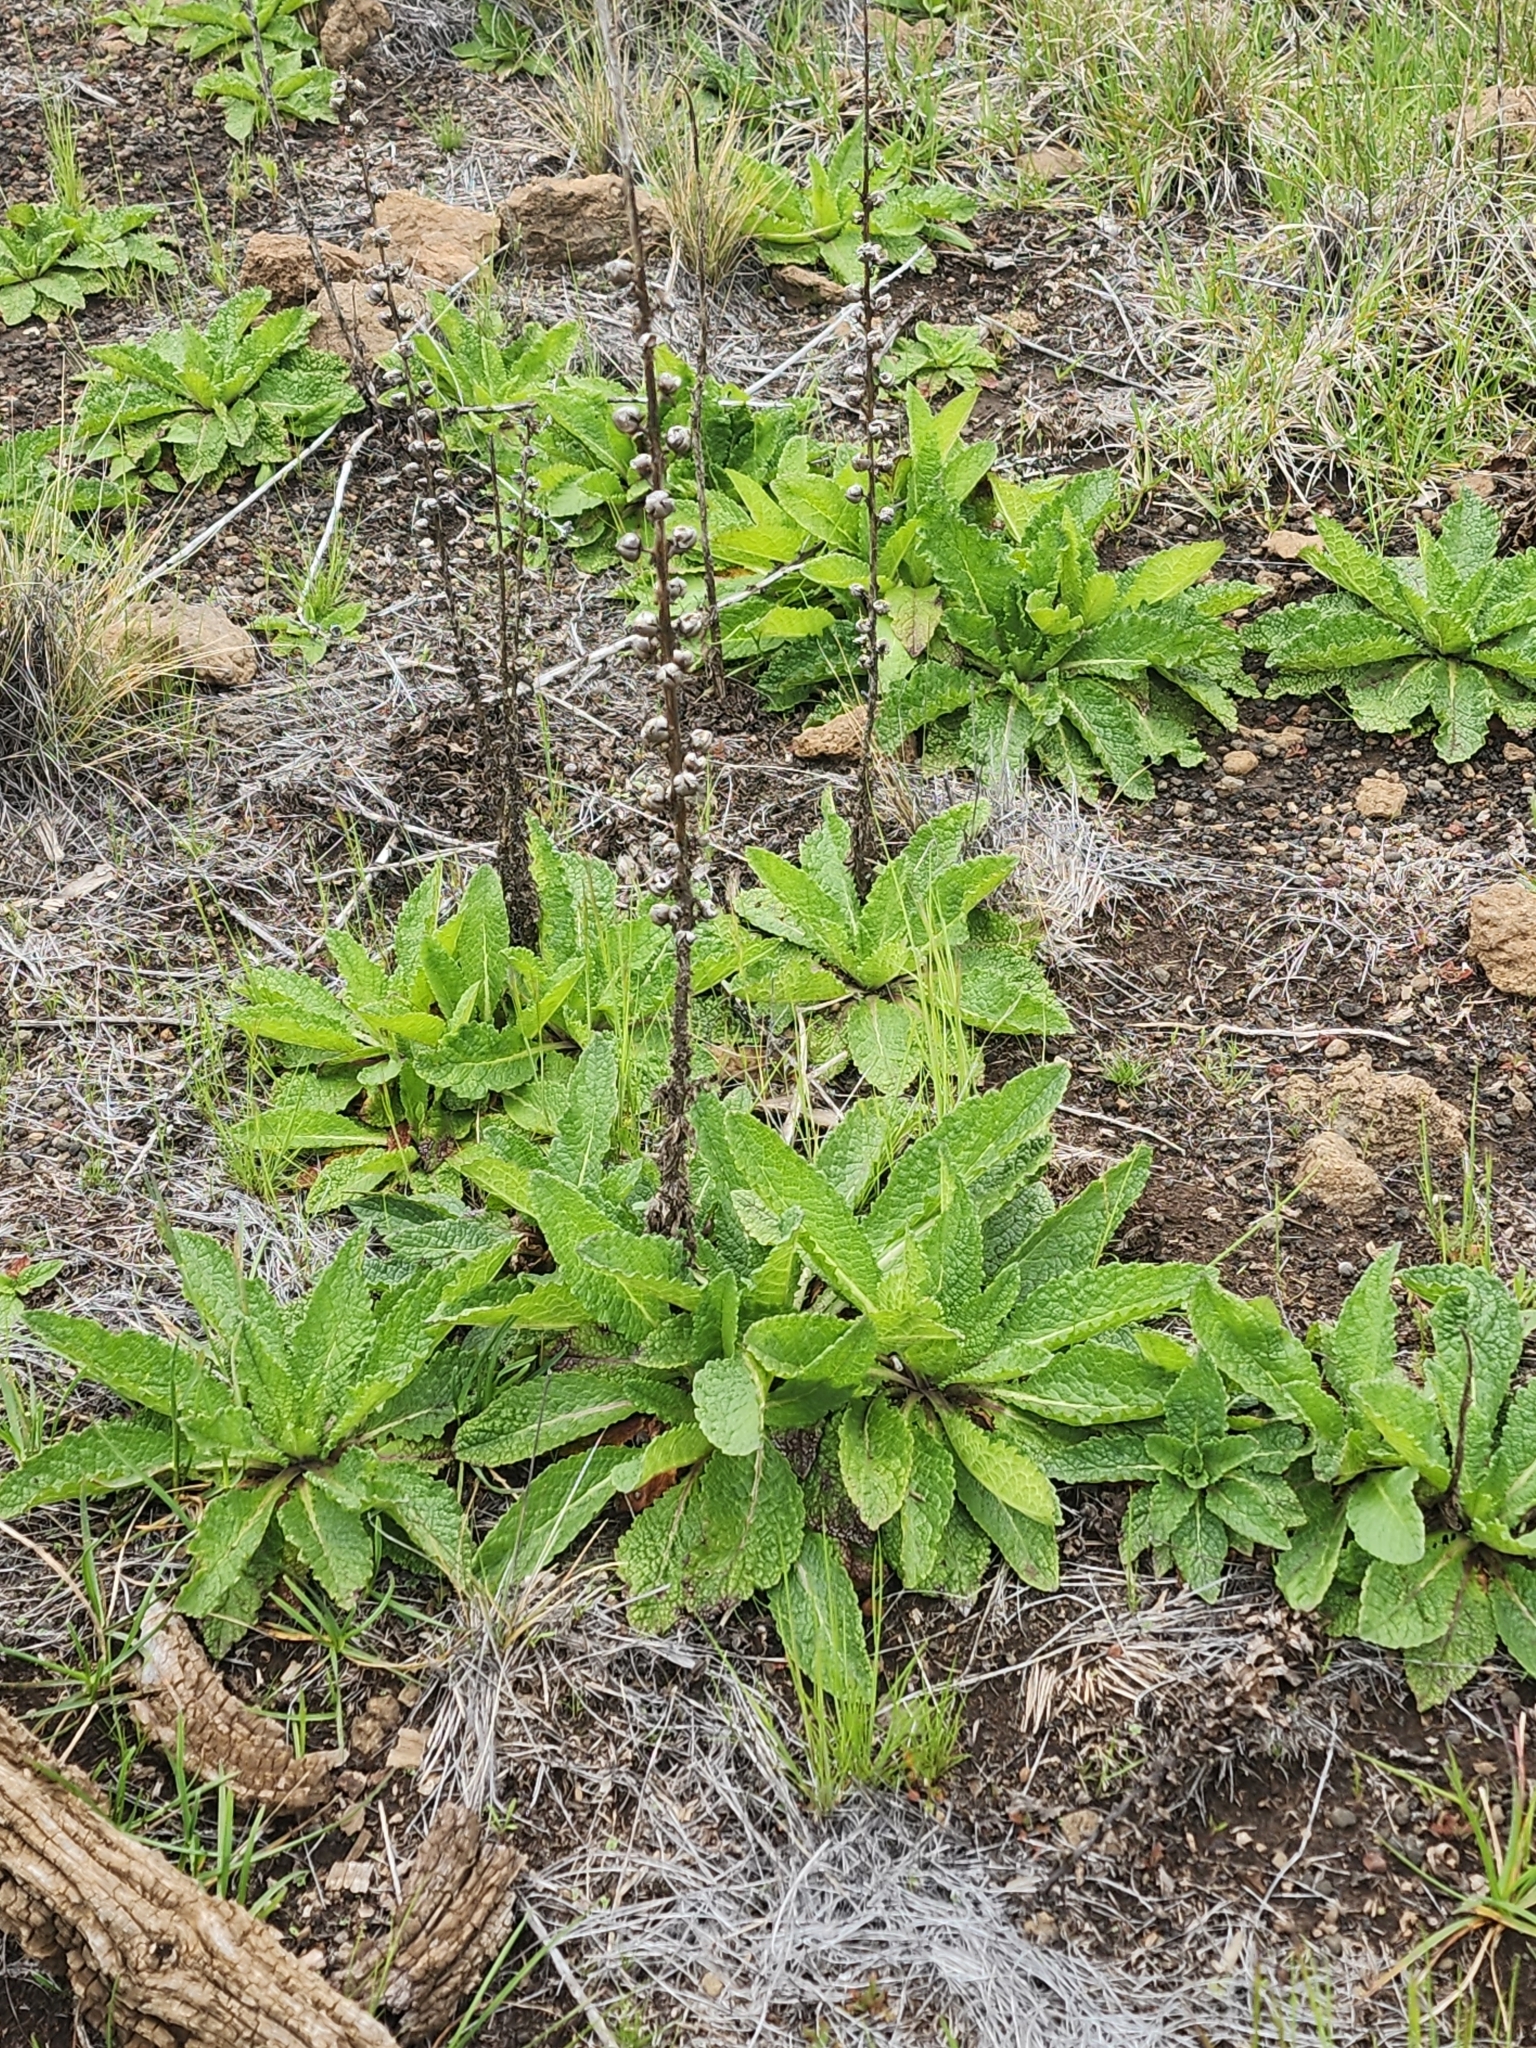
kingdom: Plantae
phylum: Tracheophyta
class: Magnoliopsida
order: Lamiales
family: Scrophulariaceae
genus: Verbascum
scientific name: Verbascum virgatum
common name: Twiggy mullein
